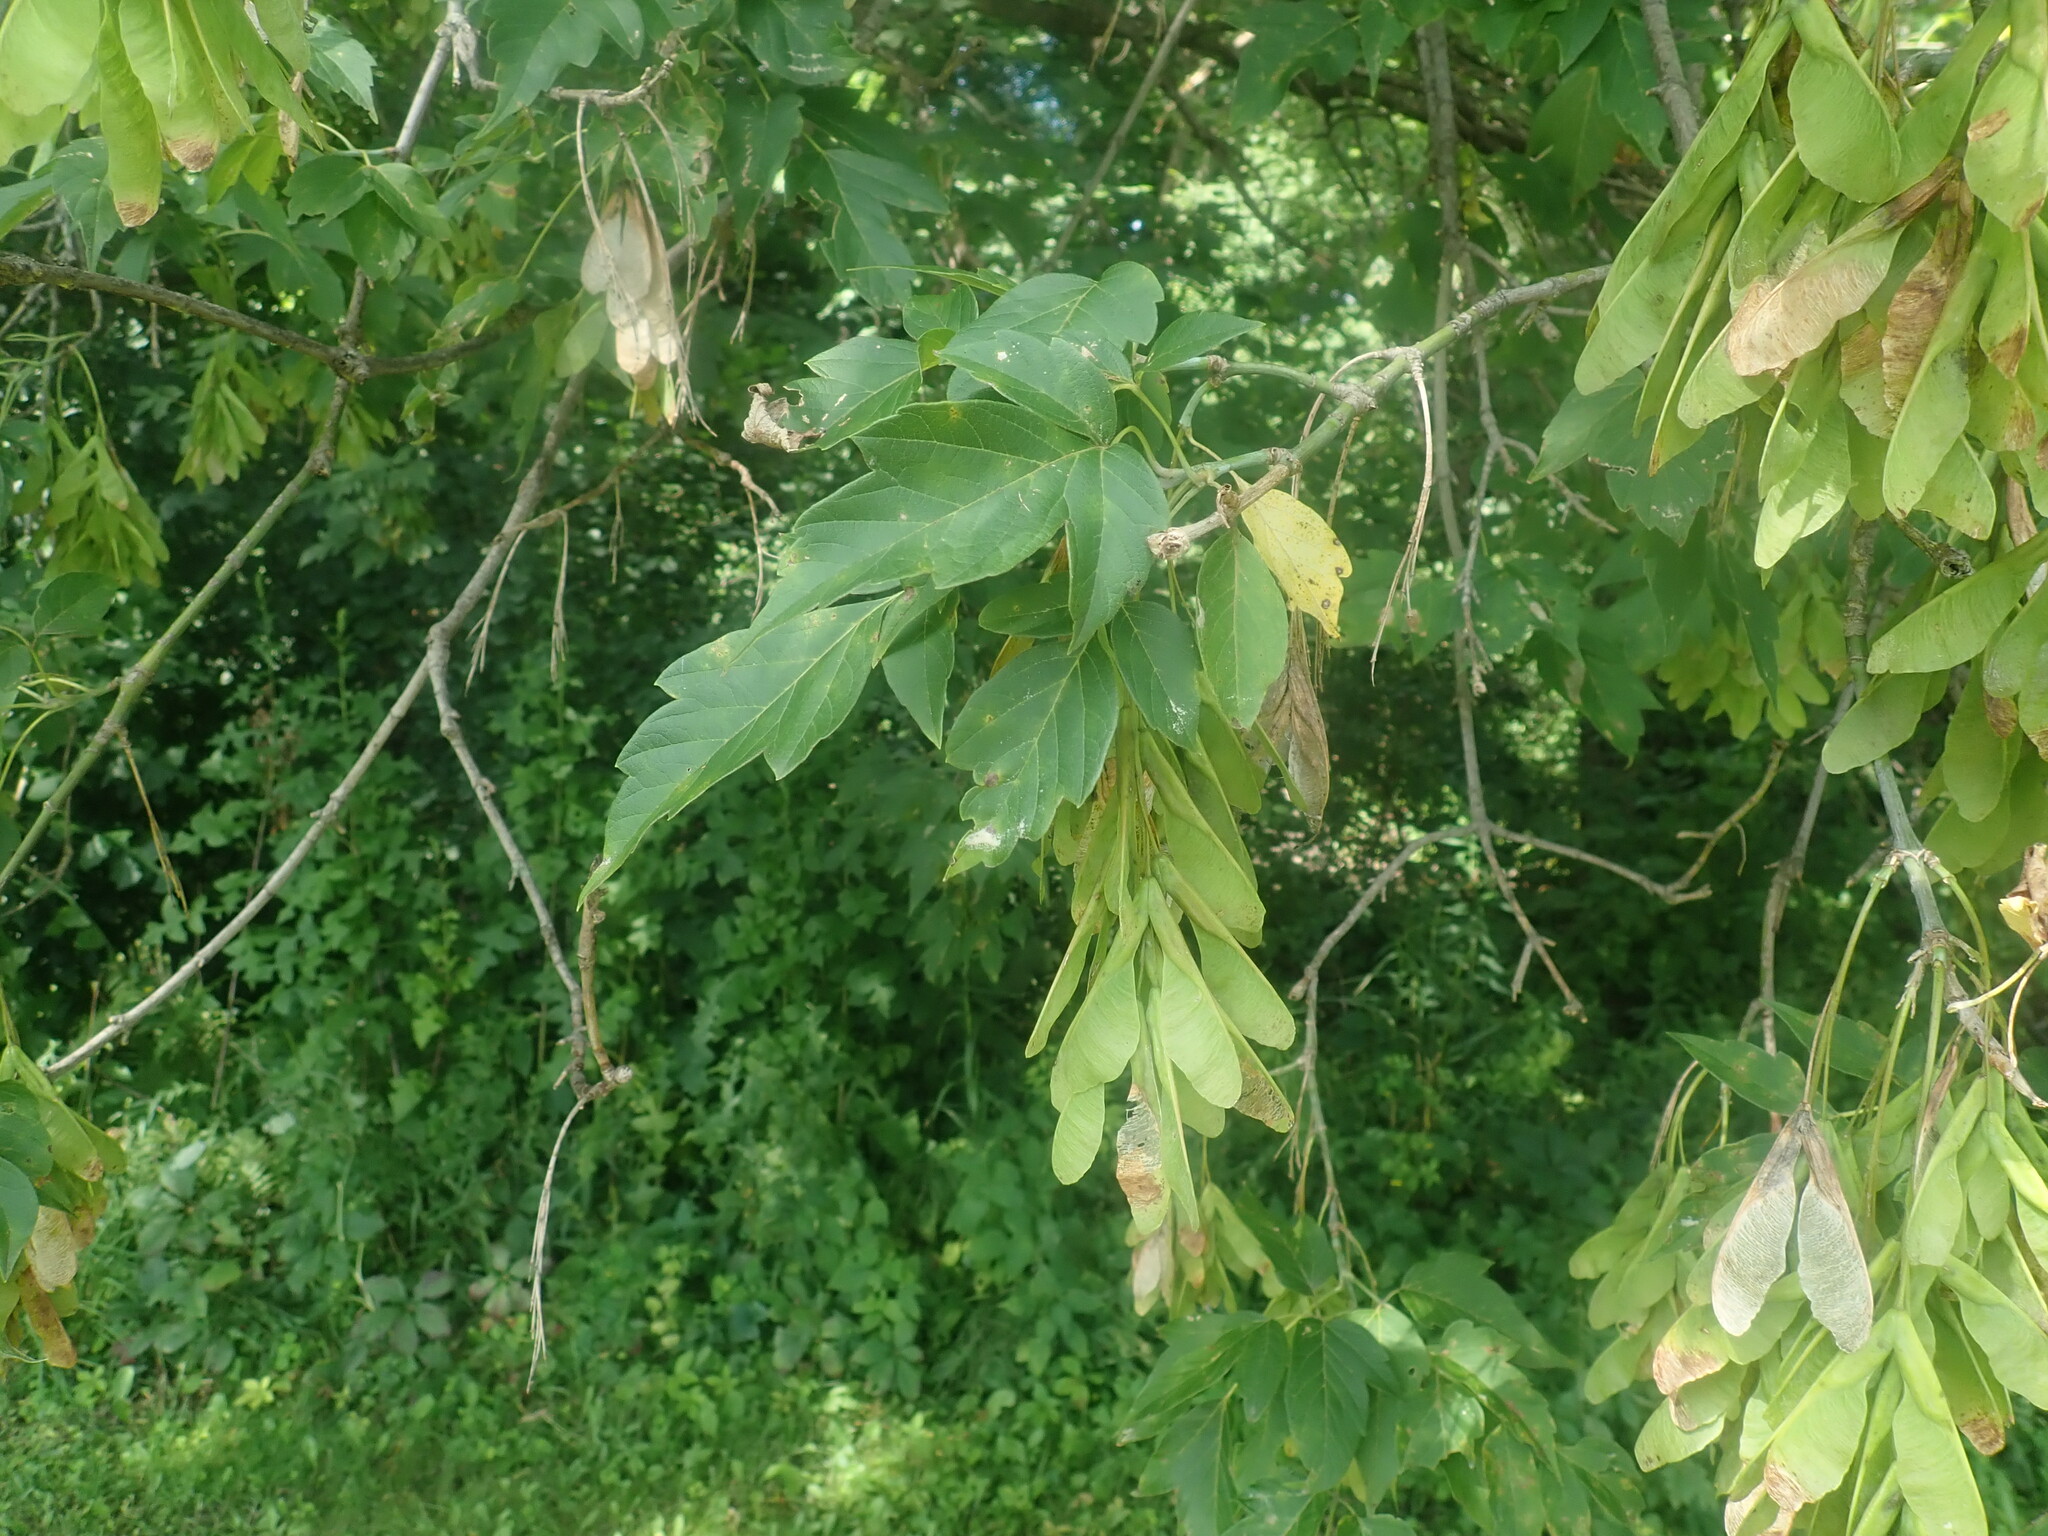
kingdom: Plantae
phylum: Tracheophyta
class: Magnoliopsida
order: Sapindales
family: Sapindaceae
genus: Acer
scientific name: Acer negundo
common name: Ashleaf maple
